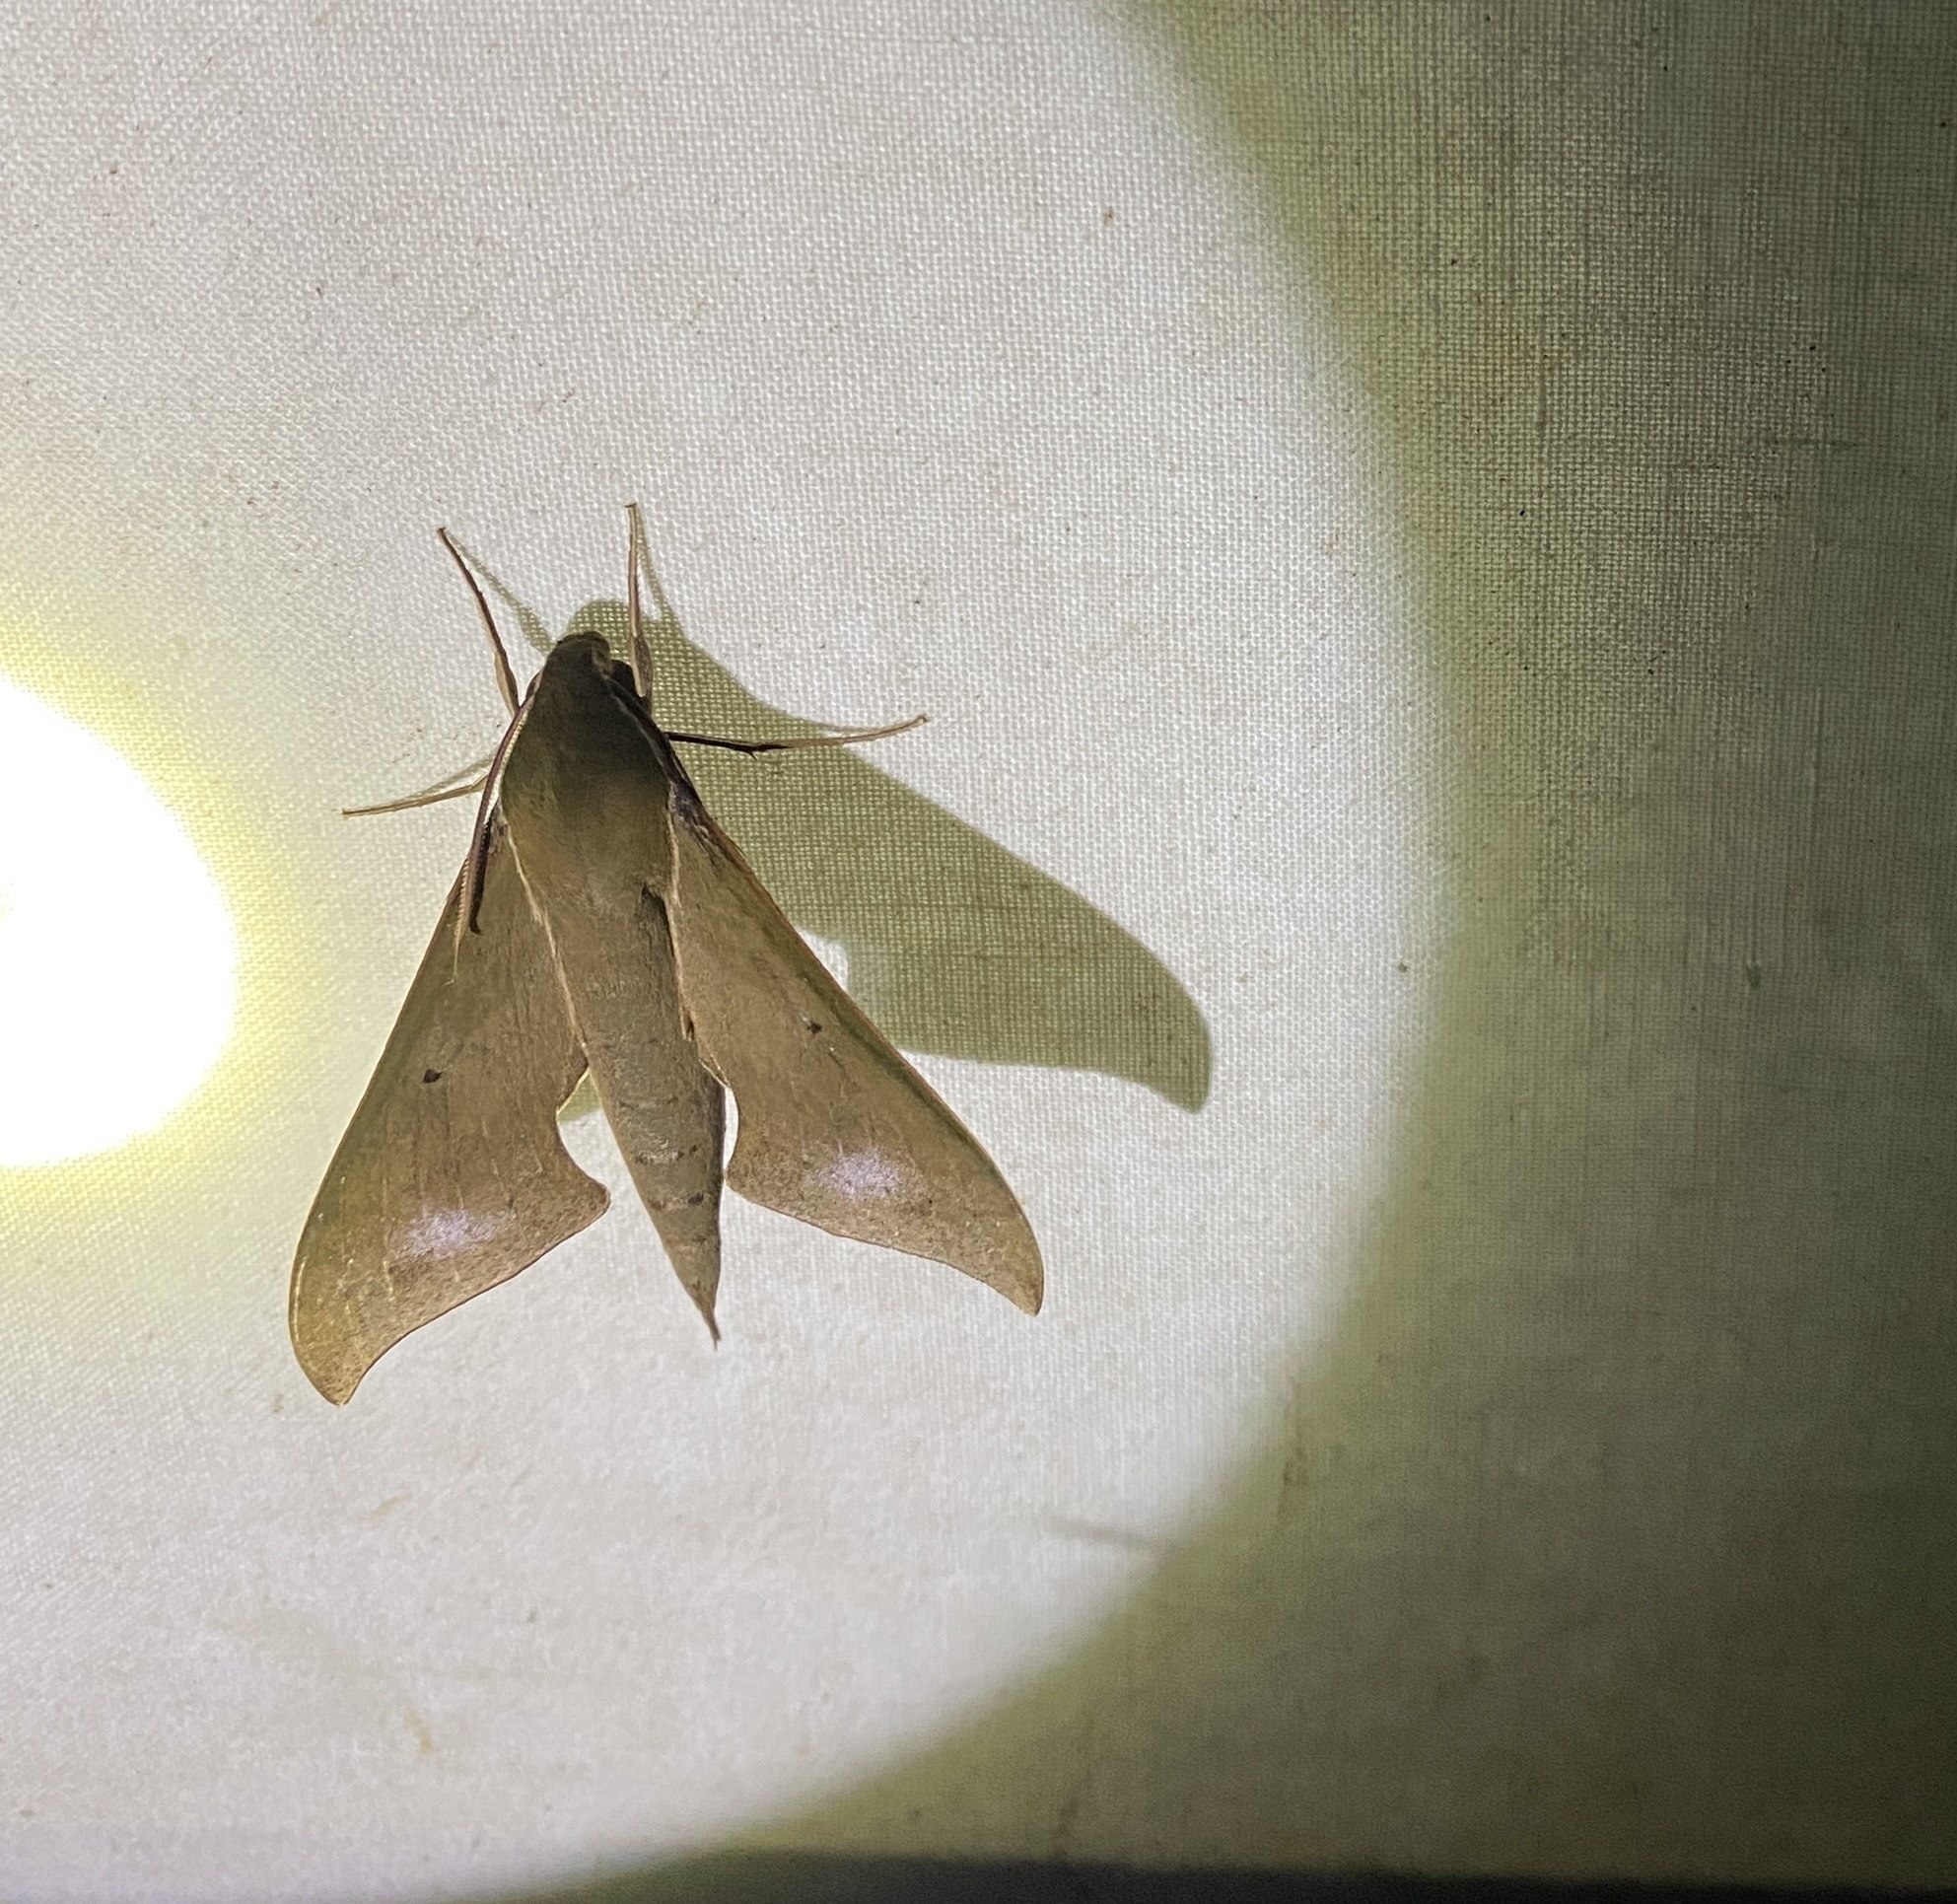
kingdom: Animalia
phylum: Arthropoda
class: Insecta
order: Lepidoptera
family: Sphingidae
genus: Xylophanes
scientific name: Xylophanes porcus
